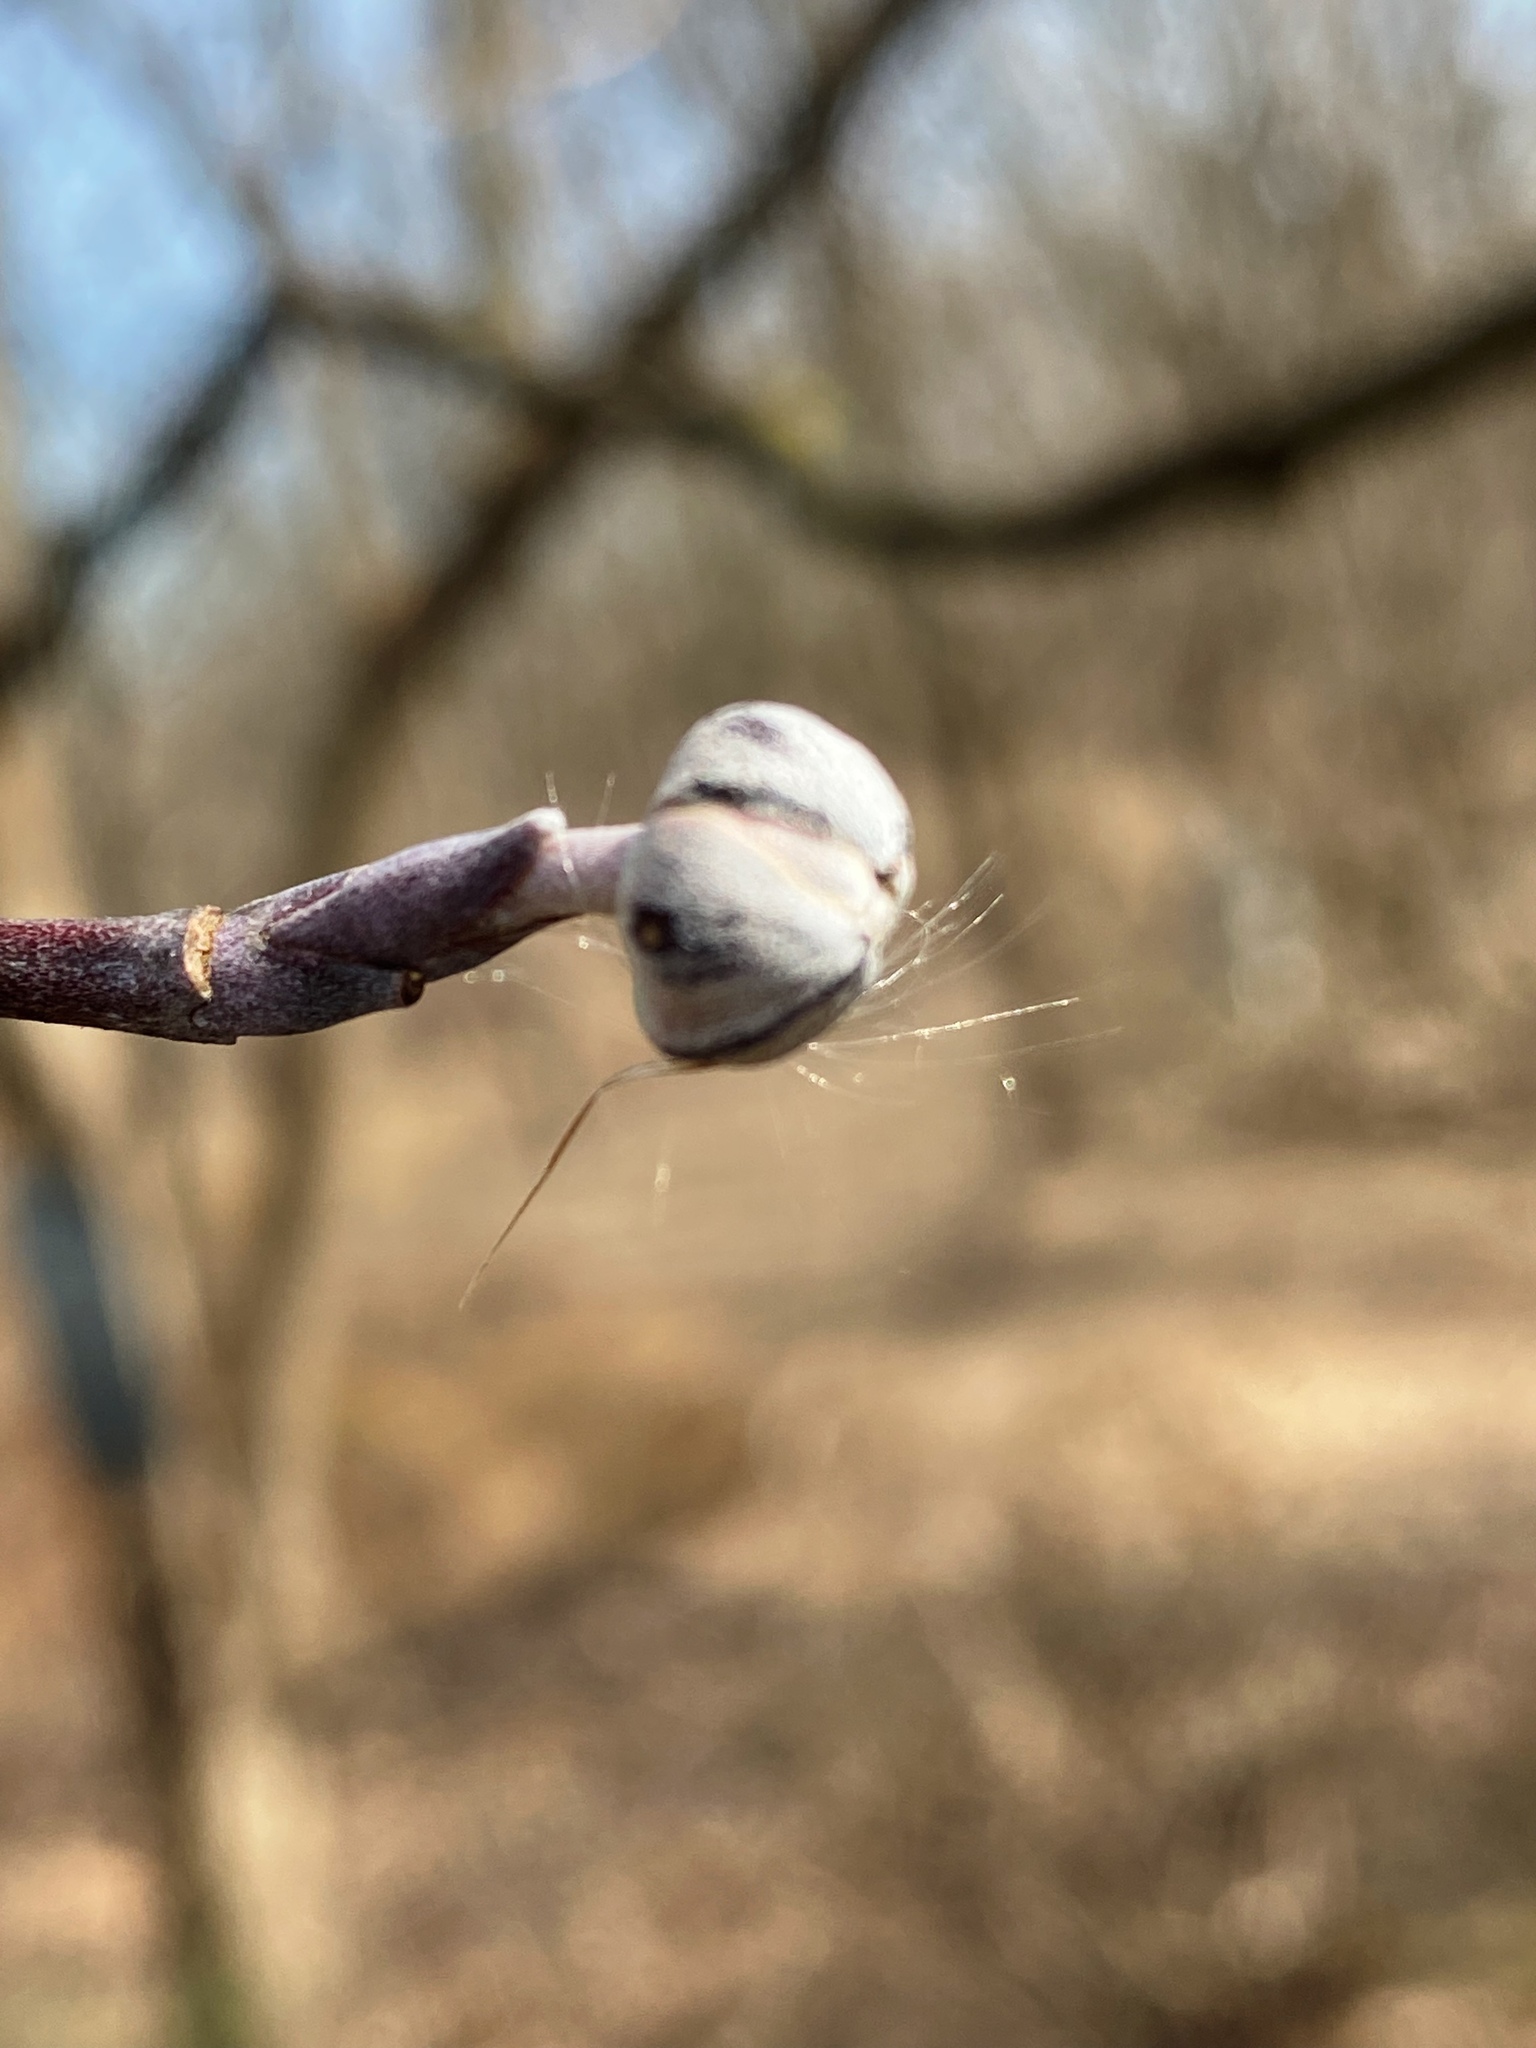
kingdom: Plantae
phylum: Tracheophyta
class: Magnoliopsida
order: Cornales
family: Cornaceae
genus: Cornus
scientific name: Cornus florida
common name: Flowering dogwood
